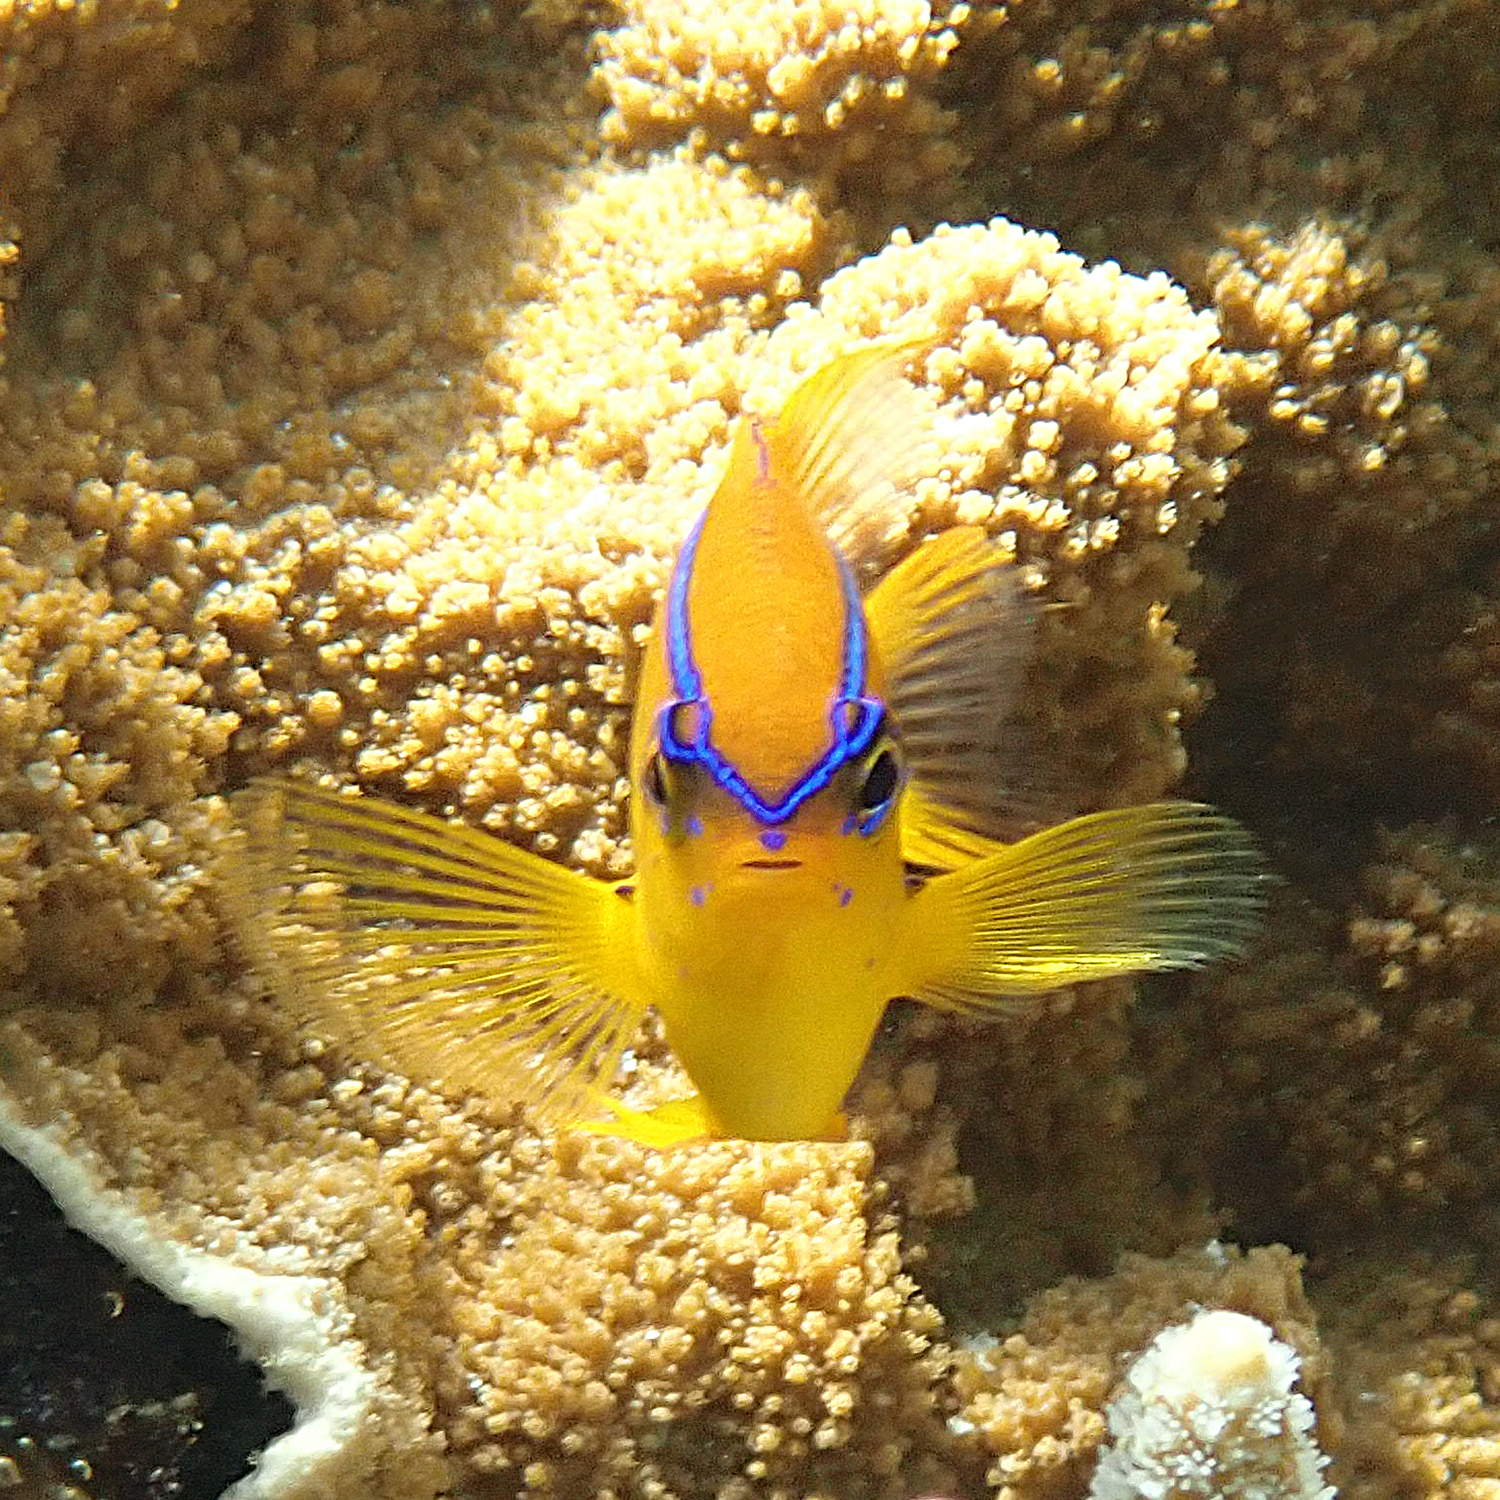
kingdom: Animalia
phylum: Chordata
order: Perciformes
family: Pomacentridae
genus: Neoglyphidodon
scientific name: Neoglyphidodon polyacanthus
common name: Multi-spined damsel
